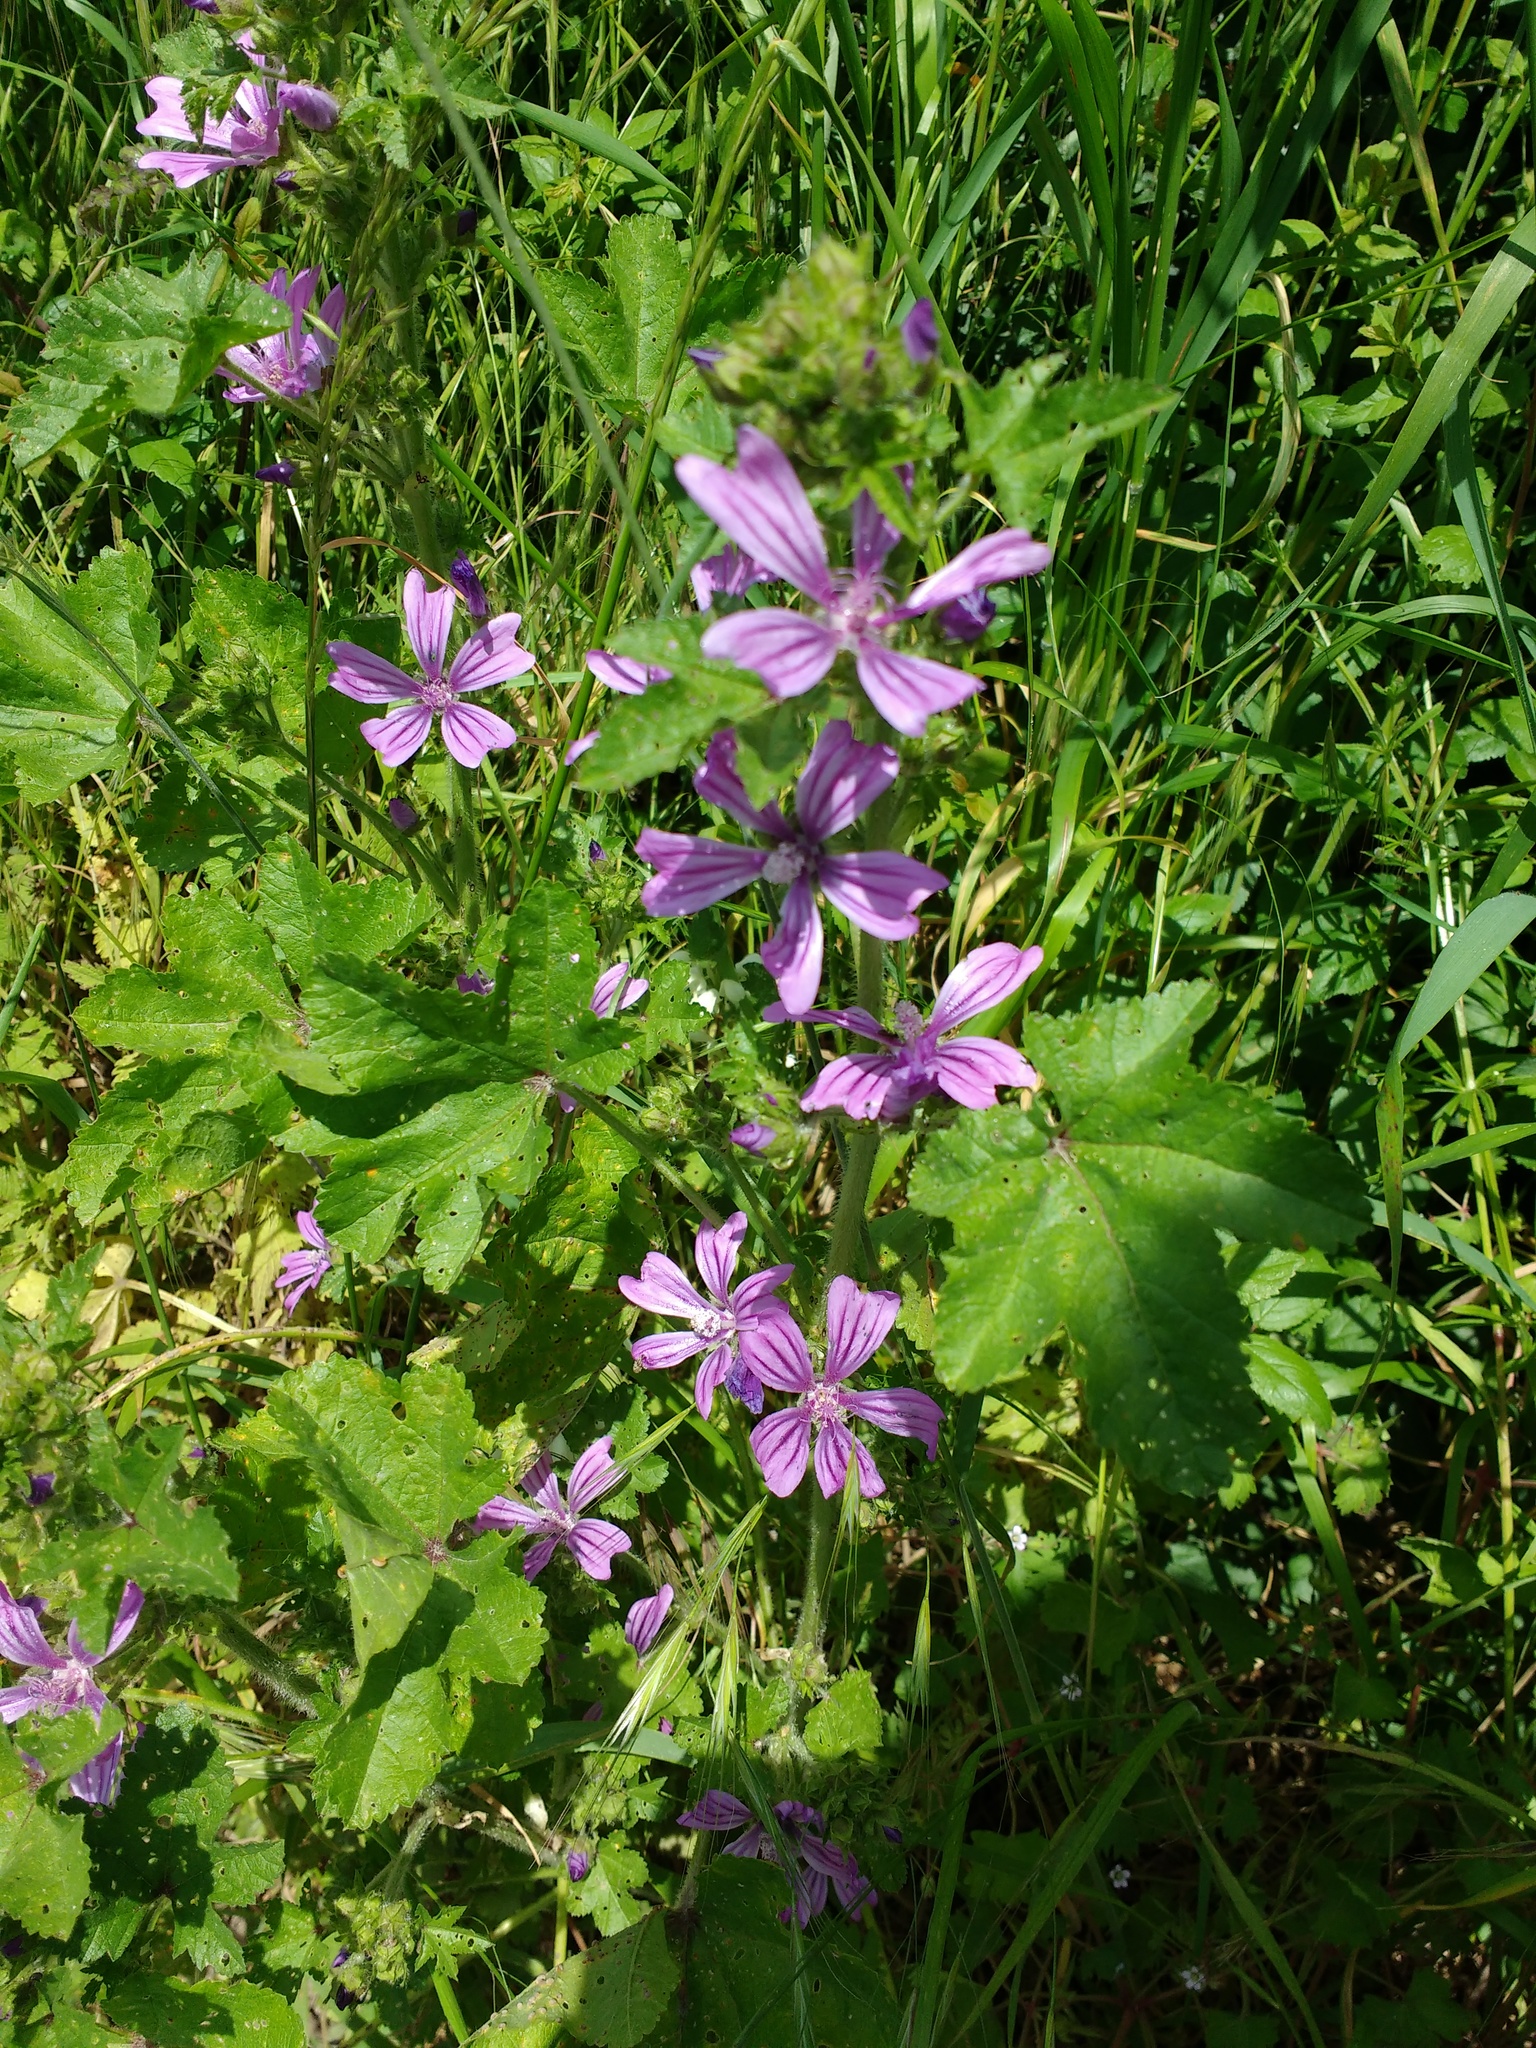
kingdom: Plantae
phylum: Tracheophyta
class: Magnoliopsida
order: Malvales
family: Malvaceae
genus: Malva
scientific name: Malva sylvestris
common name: Common mallow
